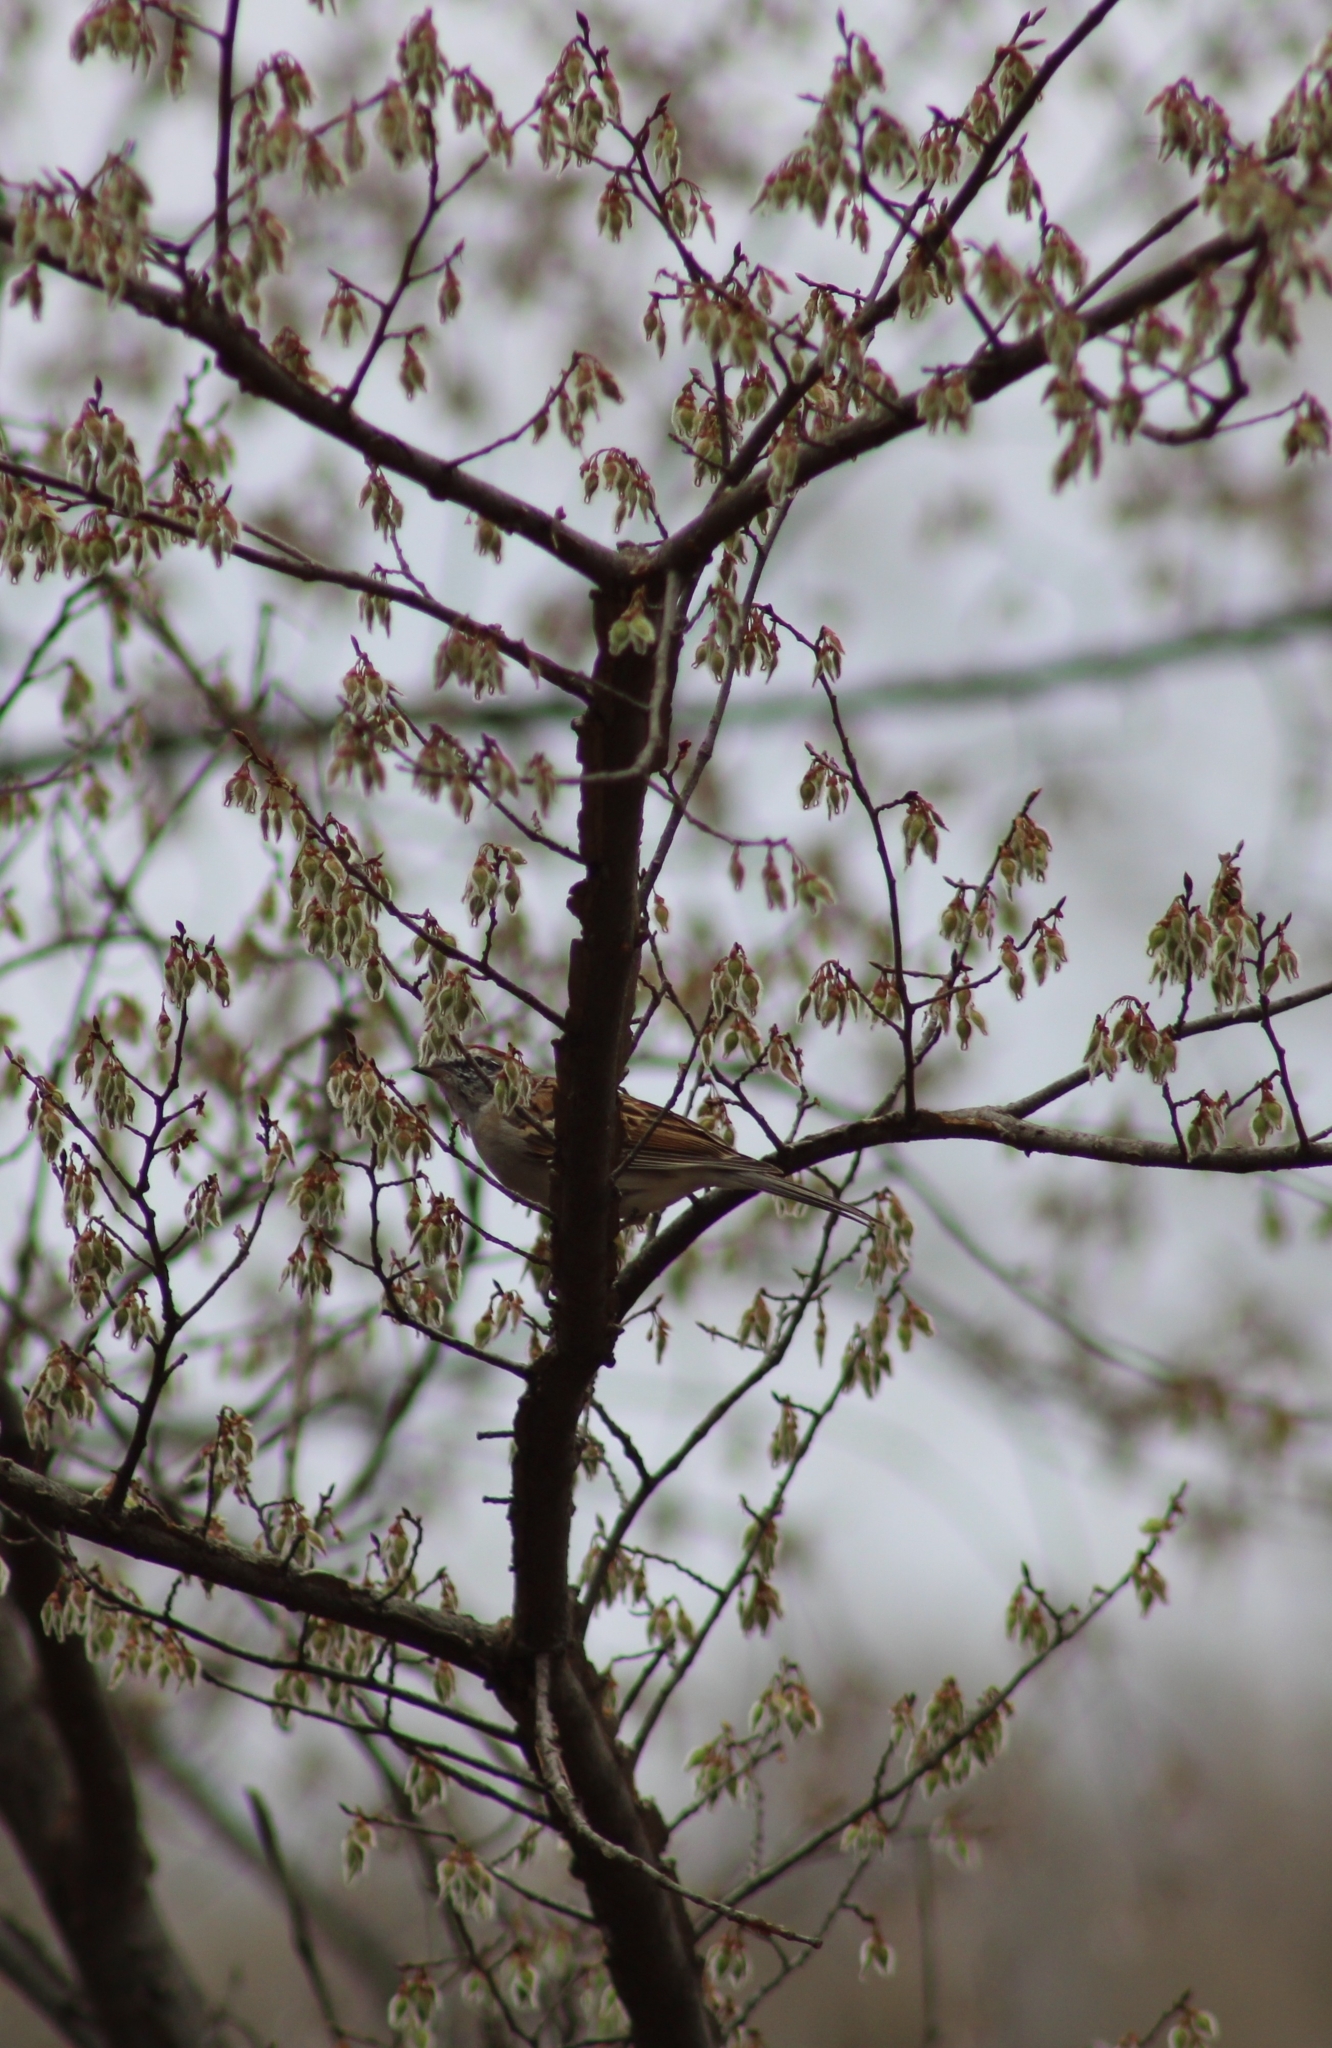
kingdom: Animalia
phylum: Chordata
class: Aves
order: Passeriformes
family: Passerellidae
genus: Spizella
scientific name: Spizella passerina
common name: Chipping sparrow
